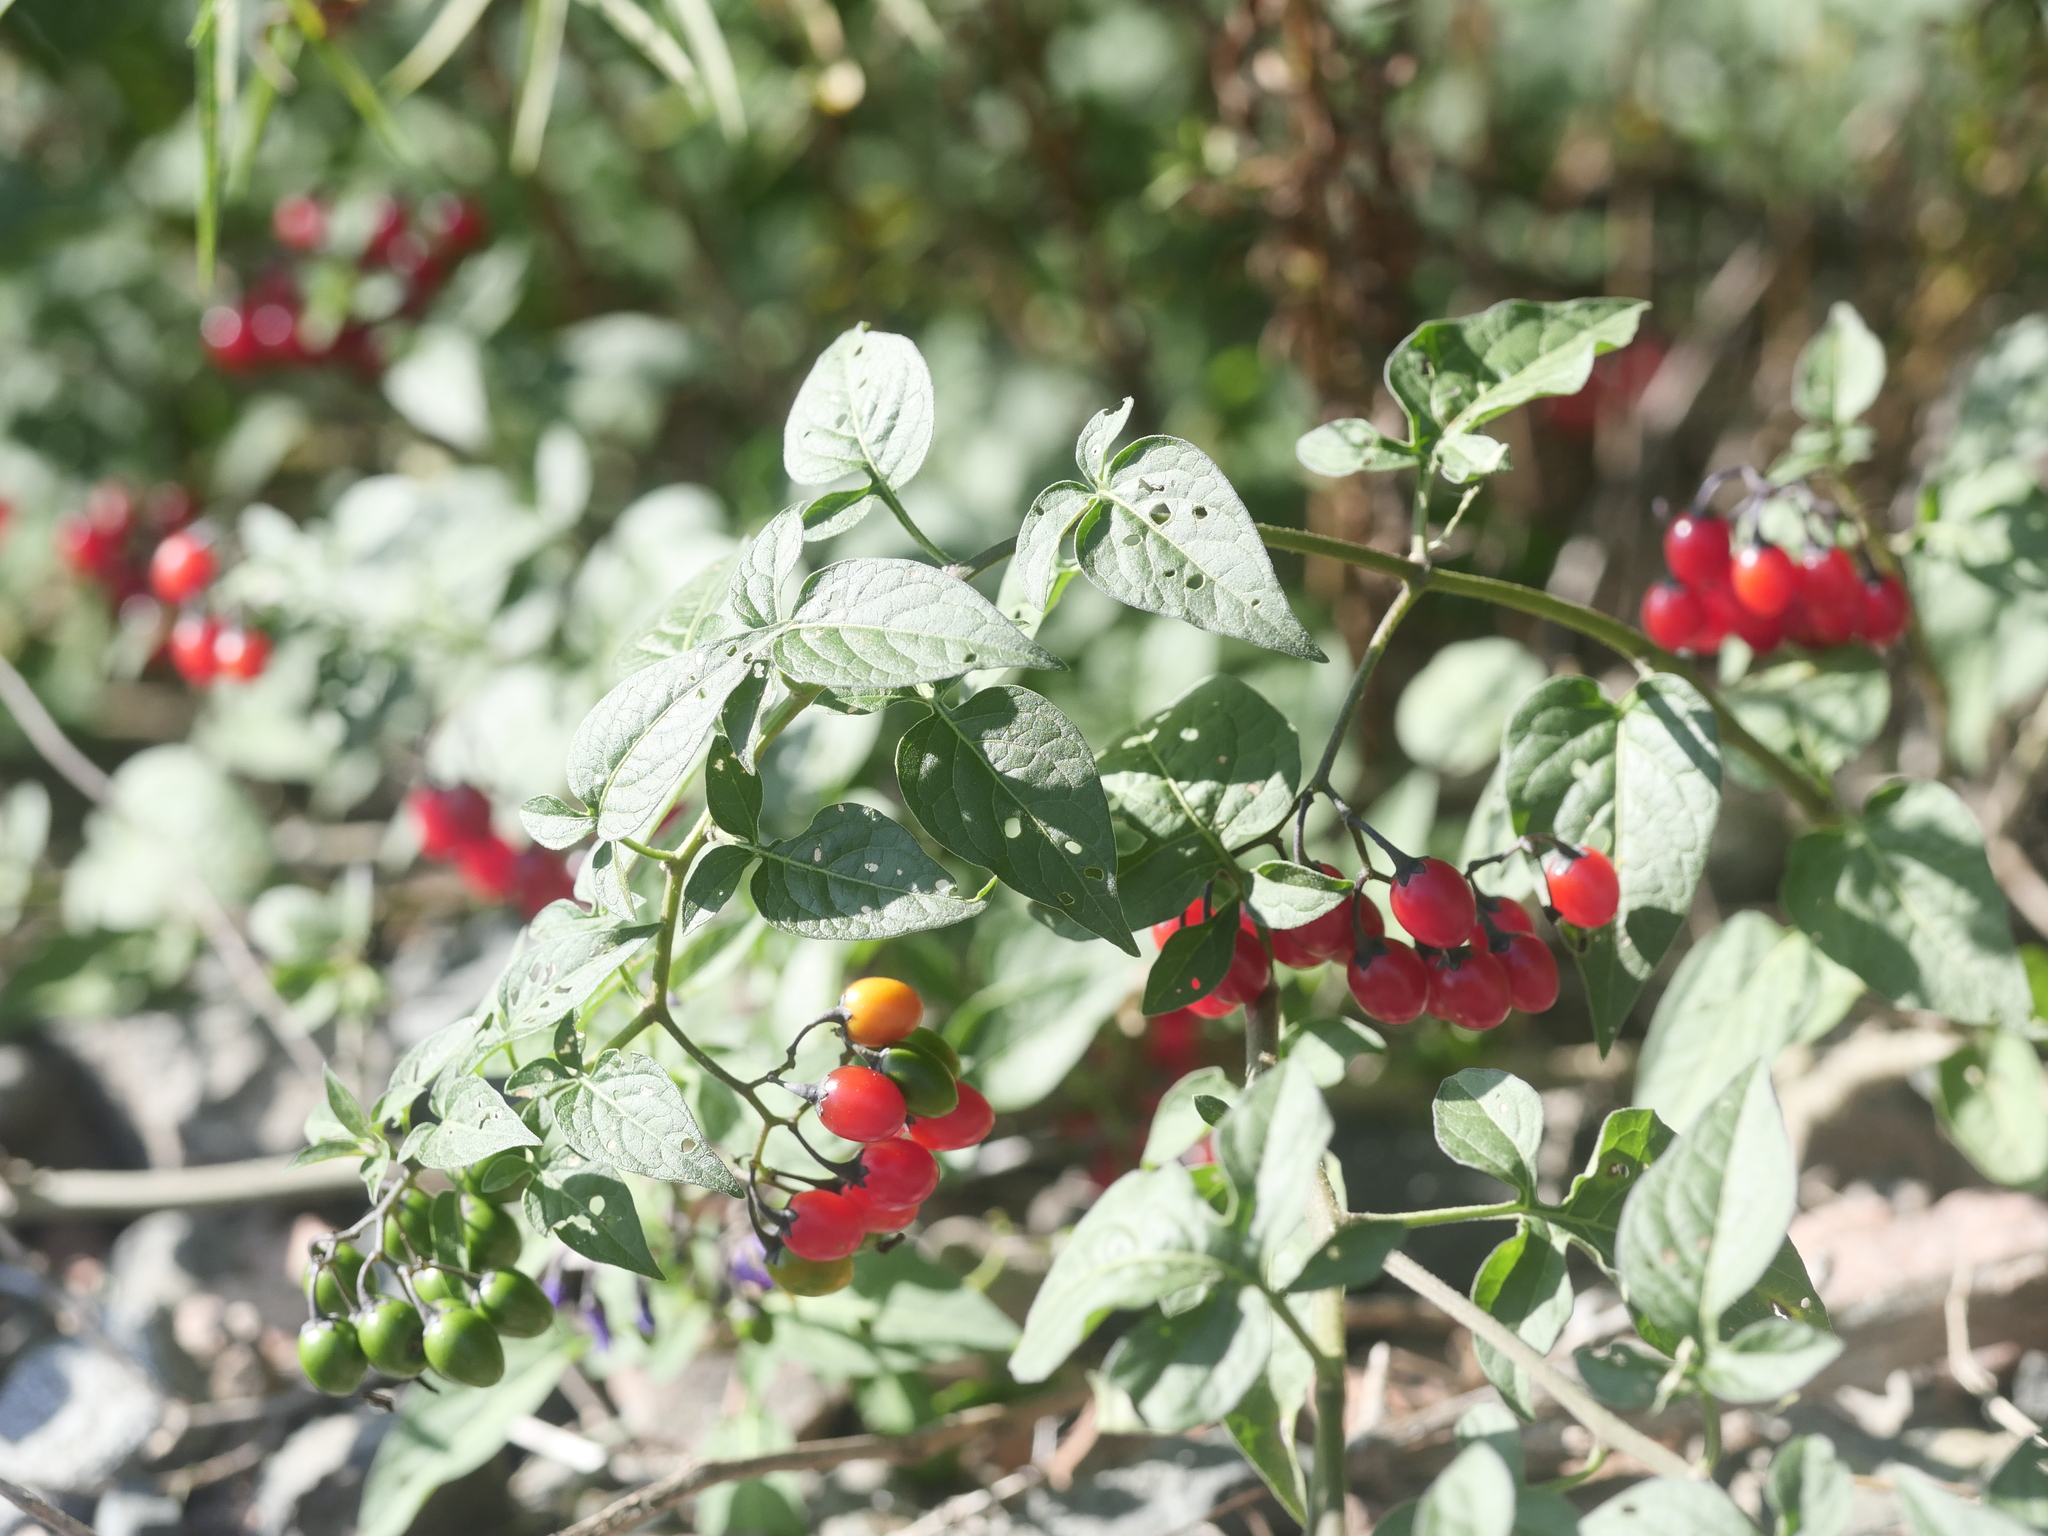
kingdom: Plantae
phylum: Tracheophyta
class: Magnoliopsida
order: Solanales
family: Solanaceae
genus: Solanum
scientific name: Solanum dulcamara
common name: Climbing nightshade
